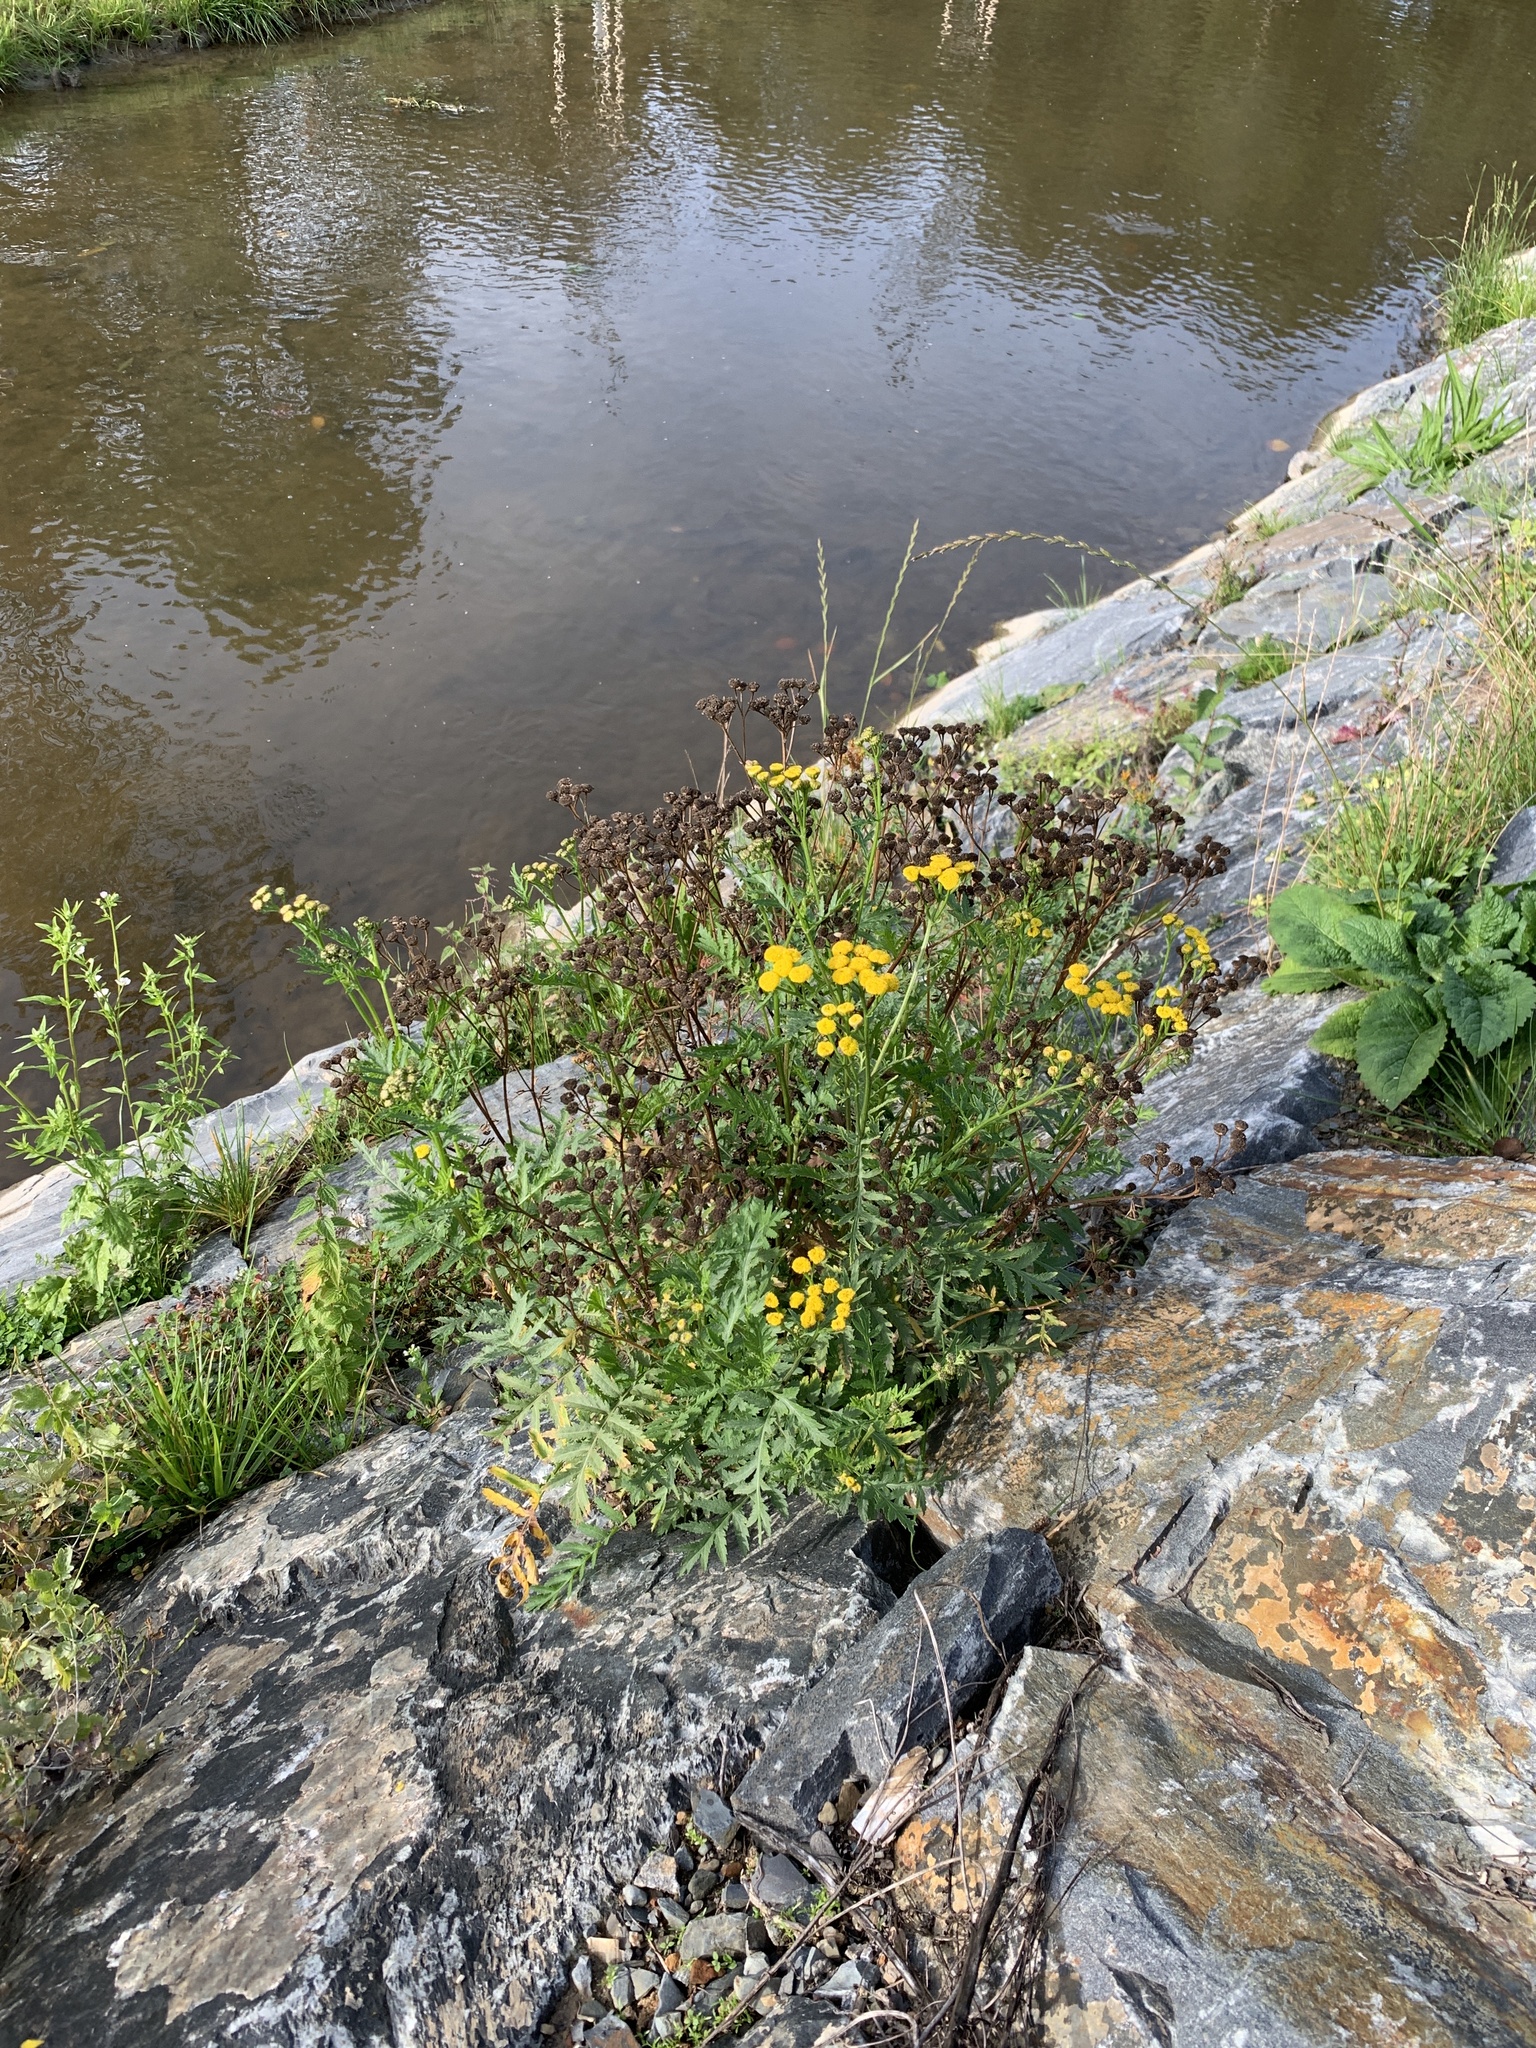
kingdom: Plantae
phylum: Tracheophyta
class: Magnoliopsida
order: Asterales
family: Asteraceae
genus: Tanacetum
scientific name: Tanacetum vulgare
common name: Common tansy
